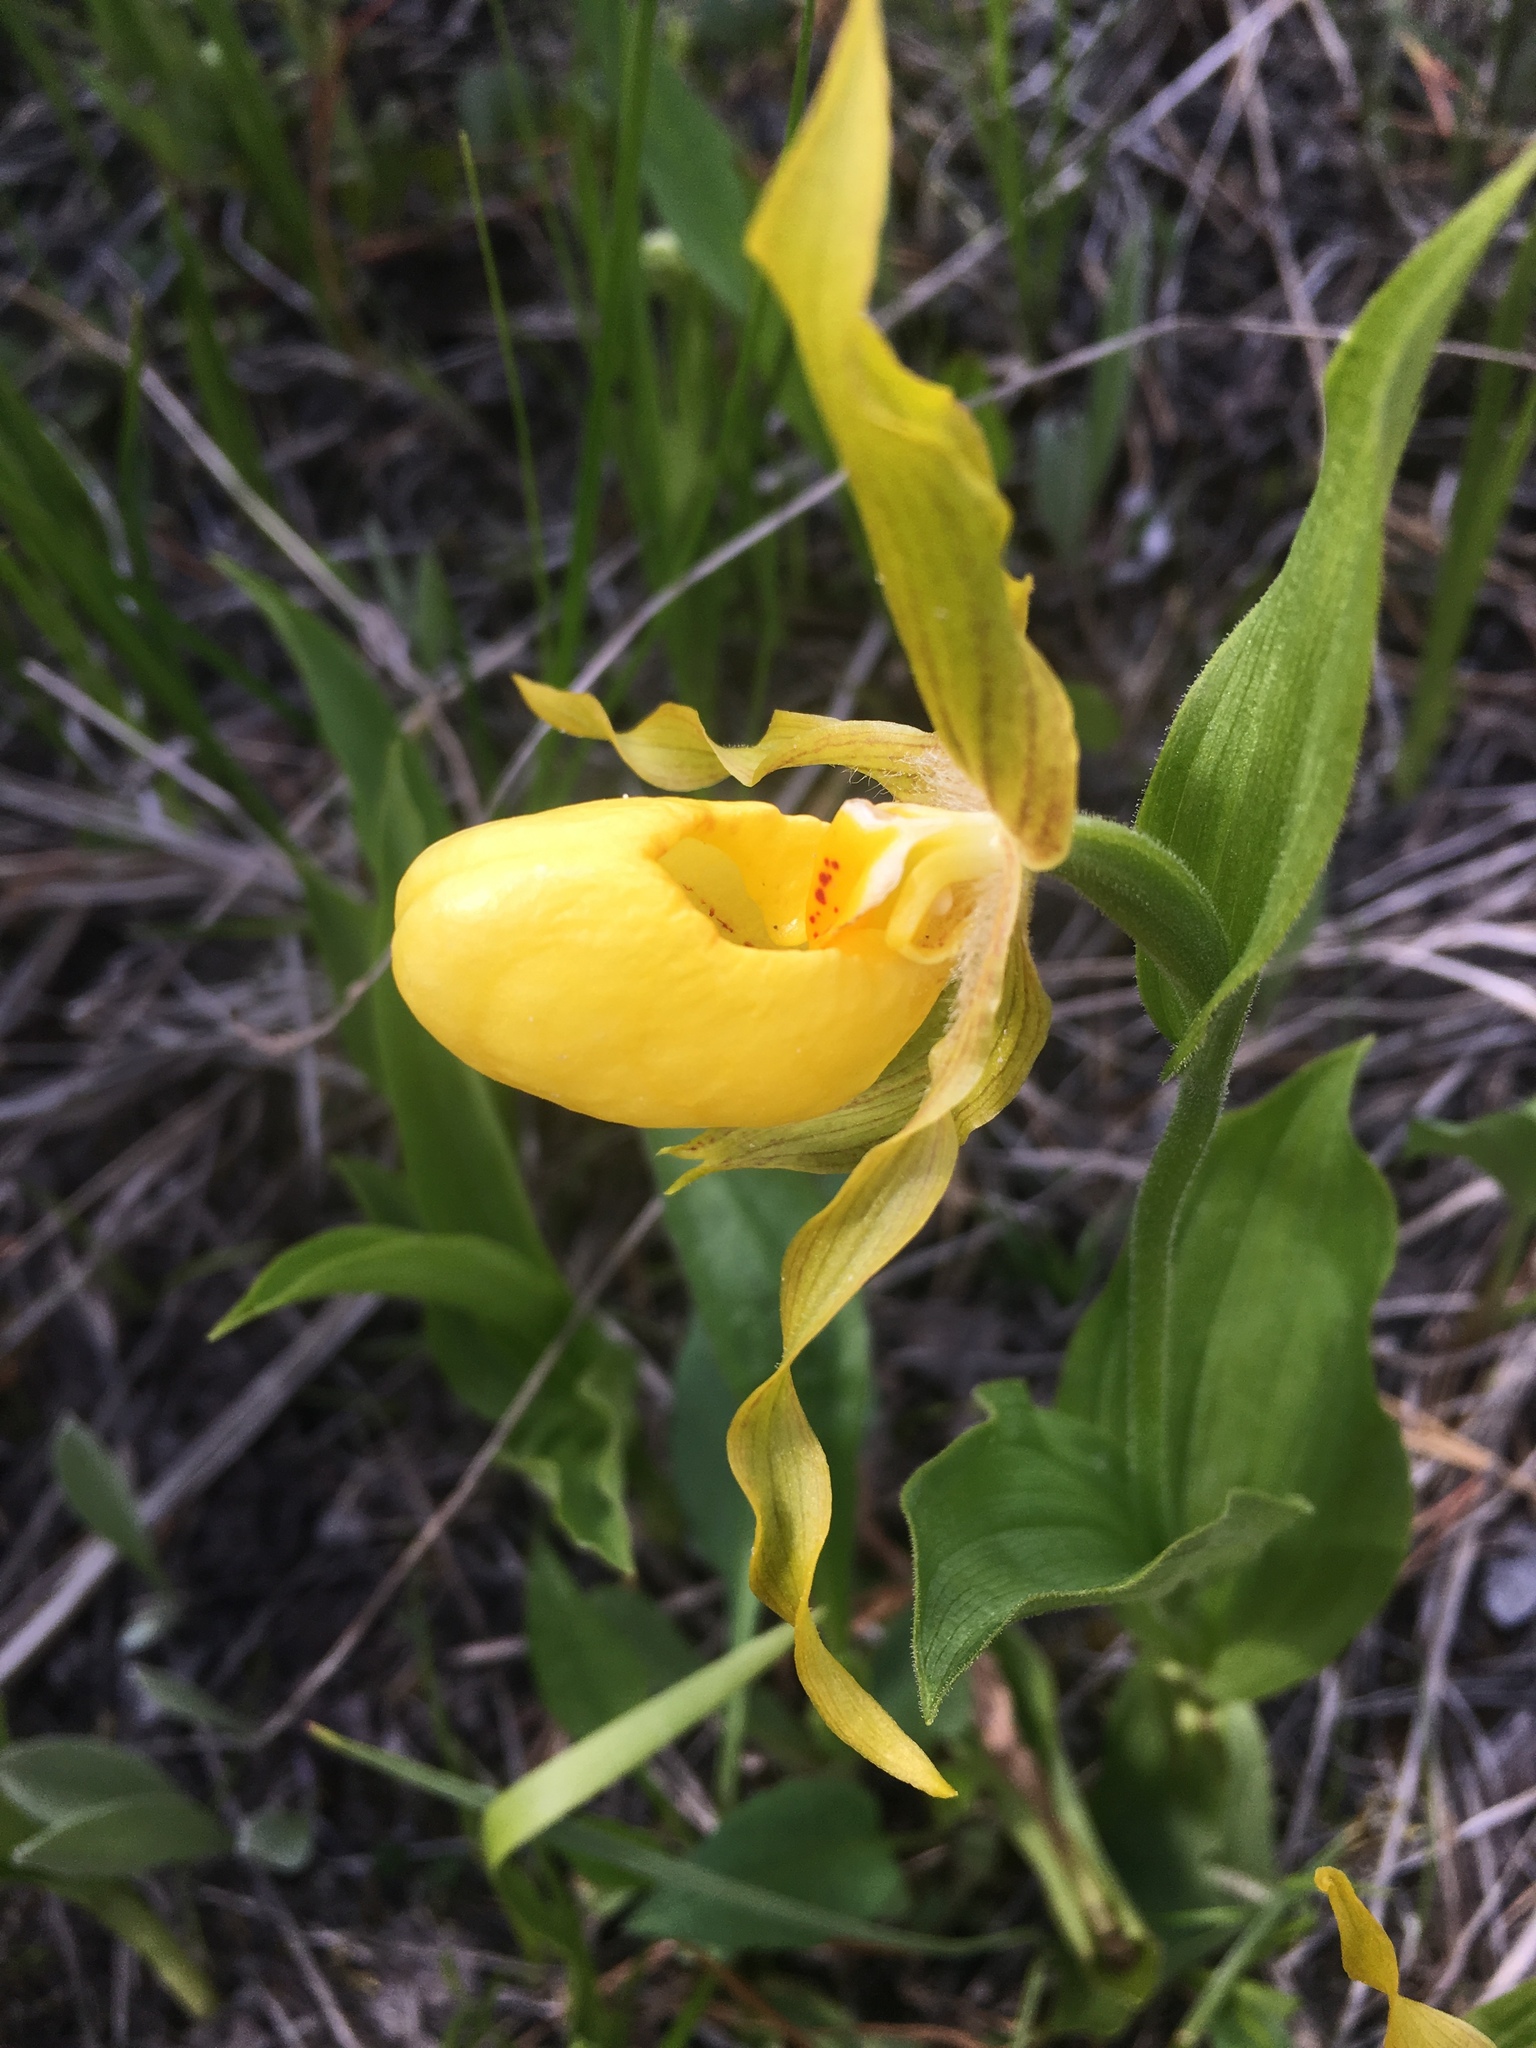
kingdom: Plantae
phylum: Tracheophyta
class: Liliopsida
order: Asparagales
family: Orchidaceae
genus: Cypripedium
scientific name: Cypripedium parviflorum
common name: American yellow lady's-slipper
